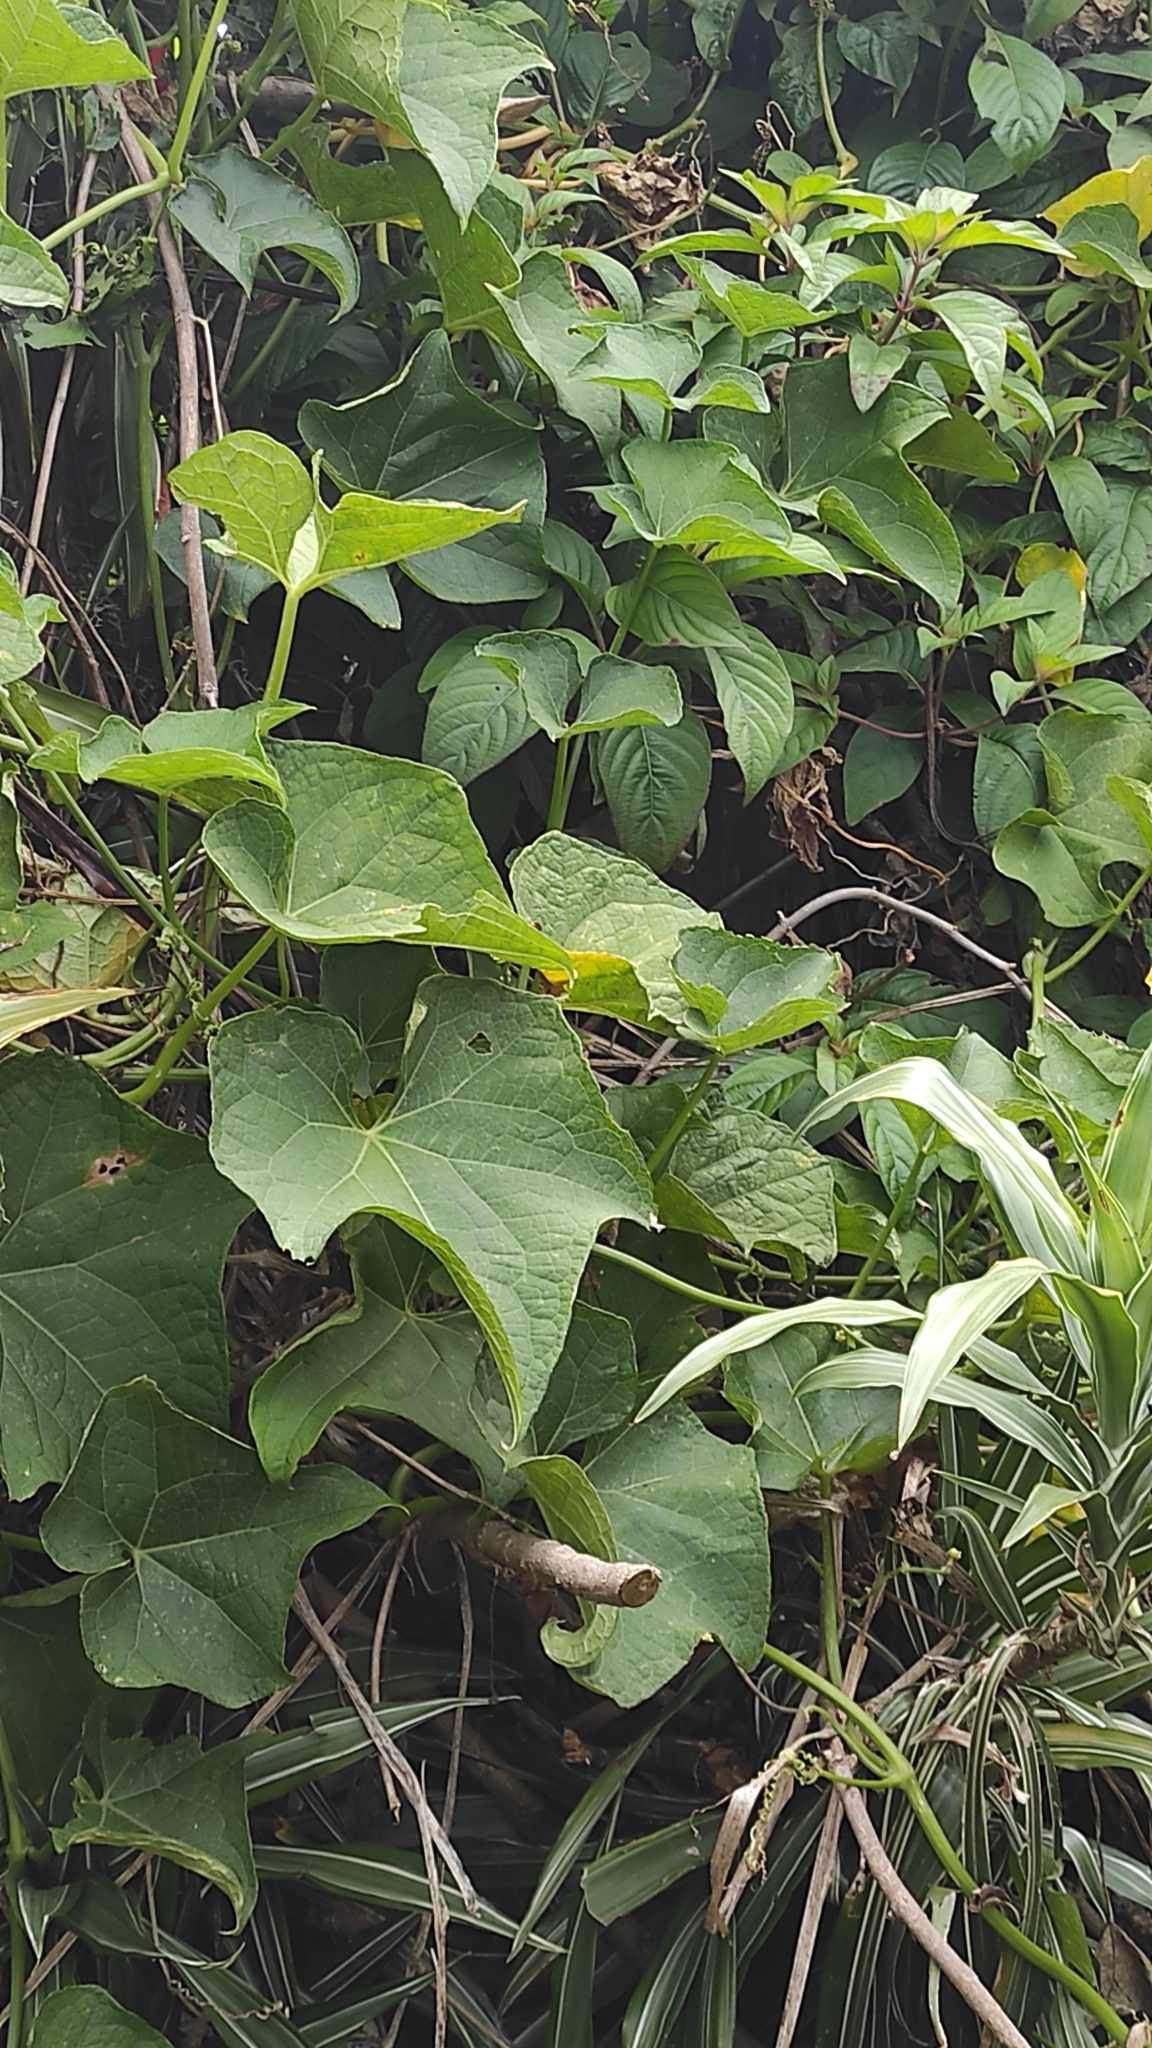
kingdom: Plantae
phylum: Tracheophyta
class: Magnoliopsida
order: Cucurbitales
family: Cucurbitaceae
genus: Sechium
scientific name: Sechium edule
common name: Chayote
